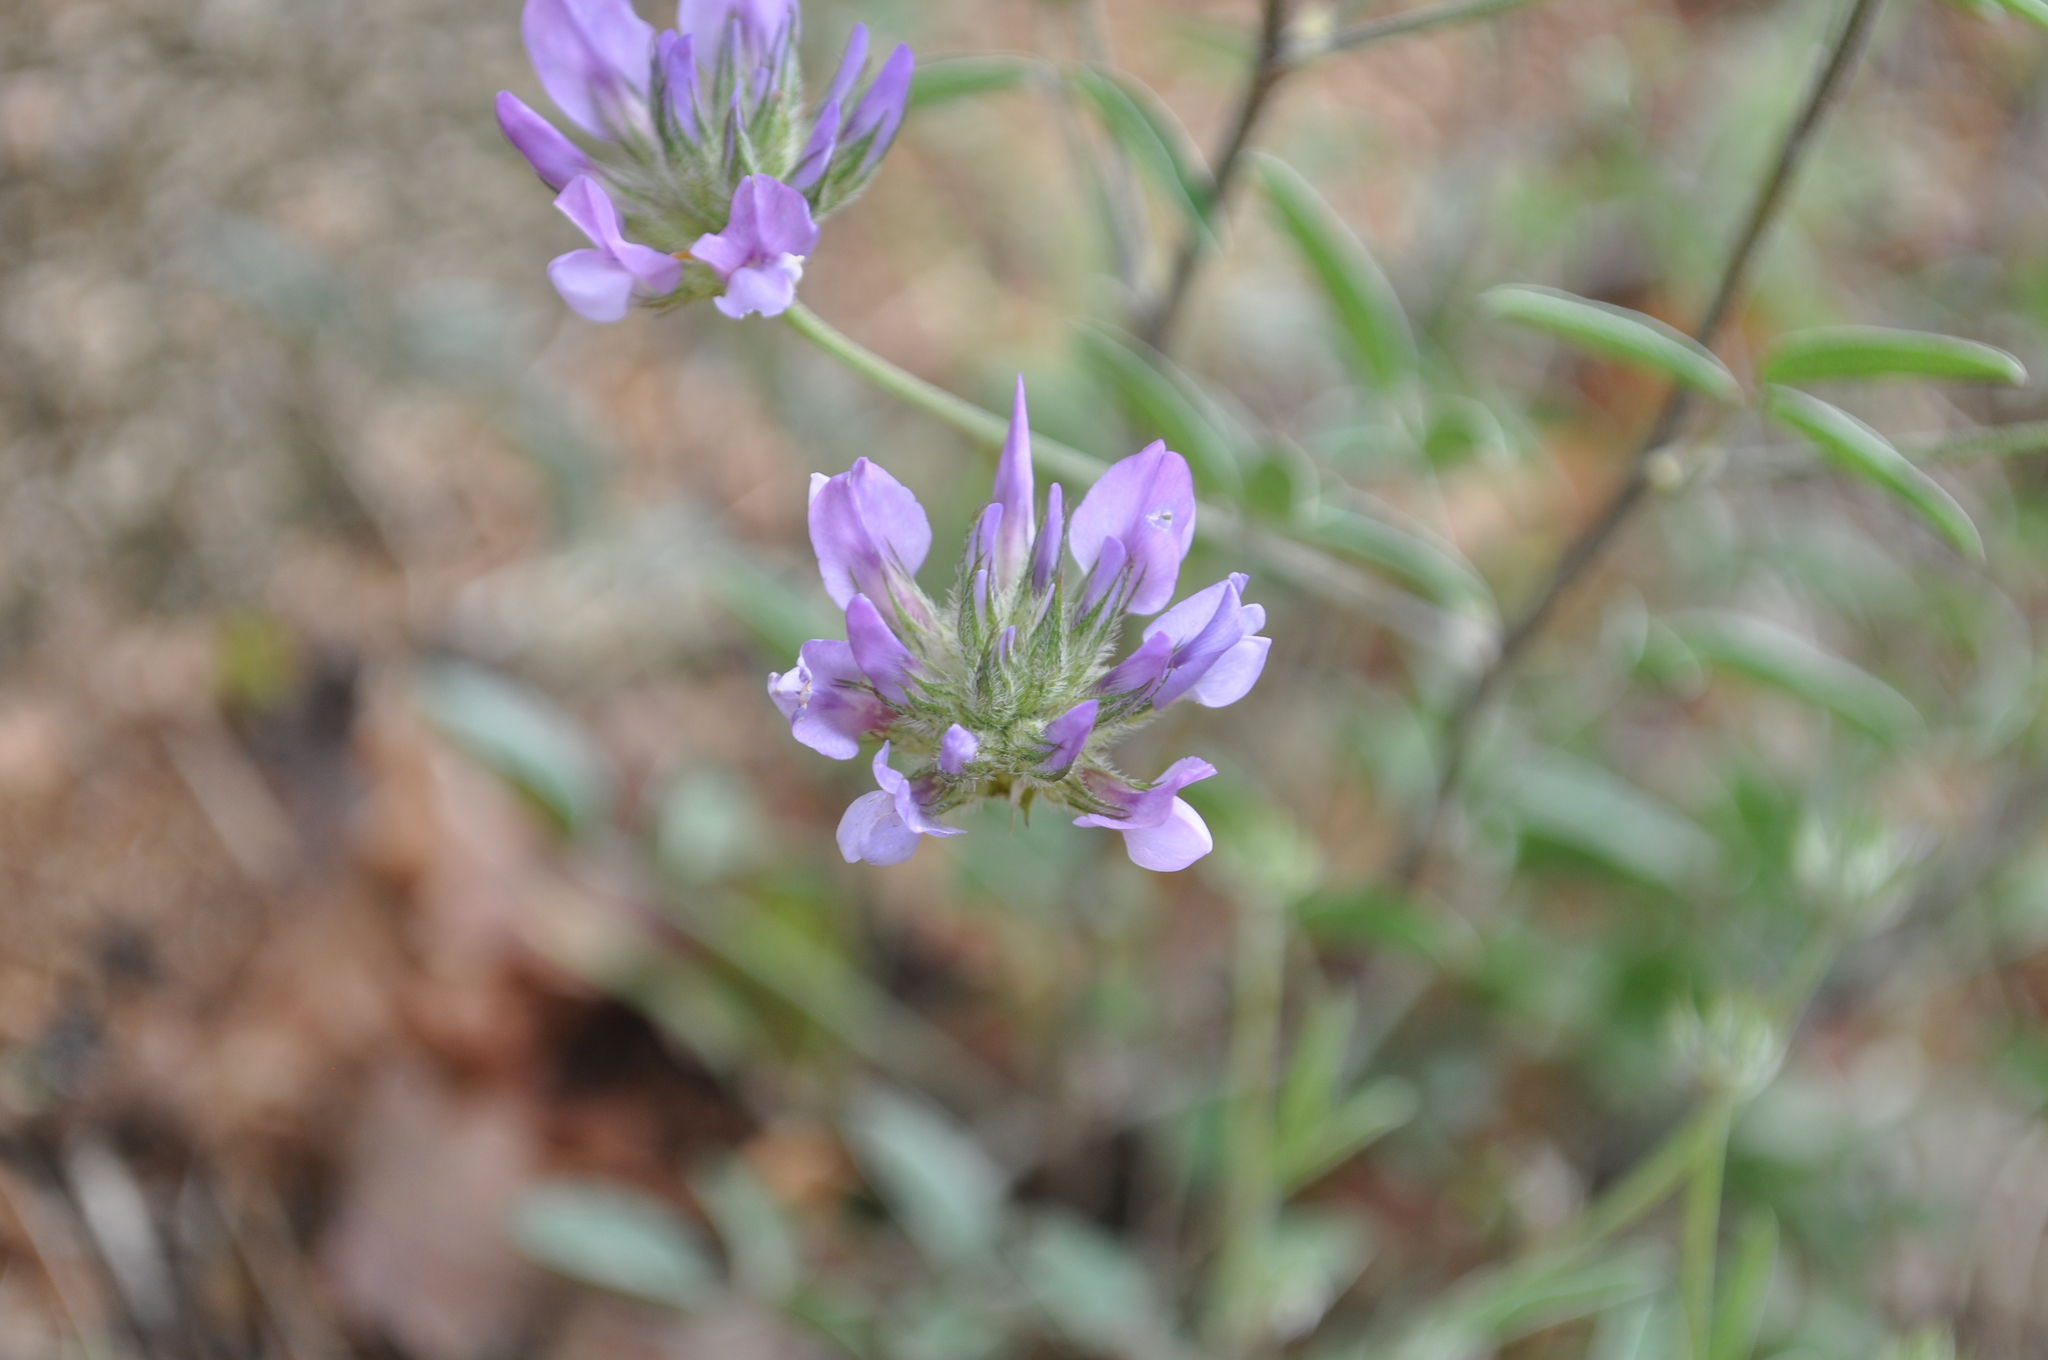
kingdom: Plantae
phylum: Tracheophyta
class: Magnoliopsida
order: Fabales
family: Fabaceae
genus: Bituminaria
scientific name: Bituminaria bituminosa
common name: Arabian pea
